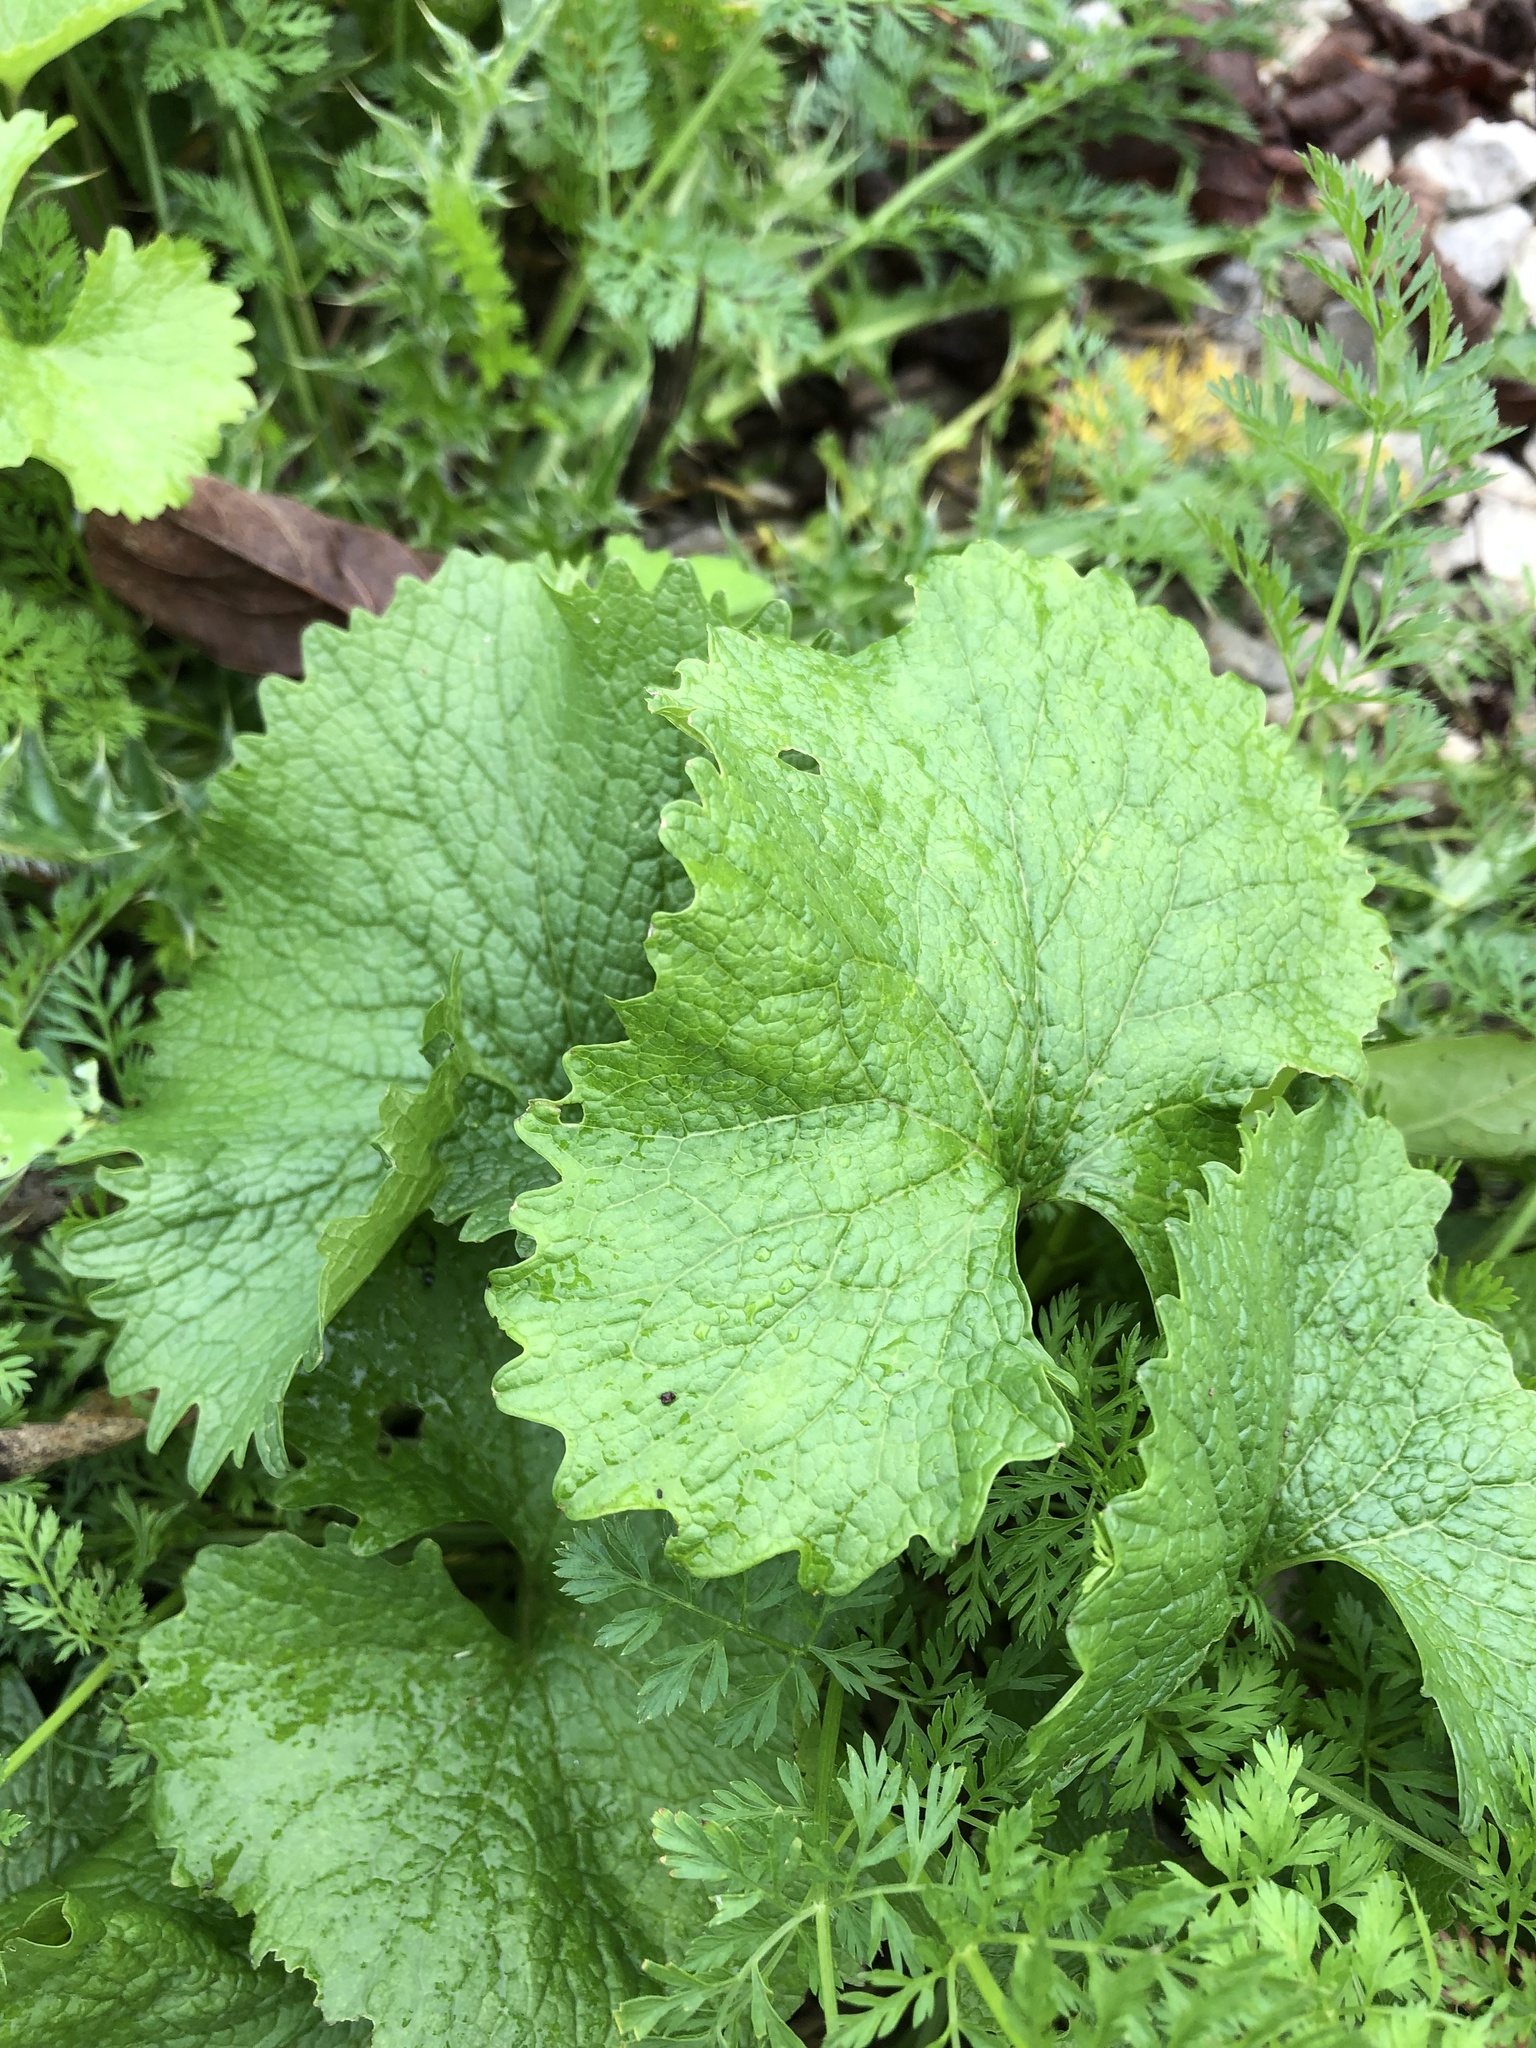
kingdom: Plantae
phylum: Tracheophyta
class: Magnoliopsida
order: Brassicales
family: Brassicaceae
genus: Alliaria
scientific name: Alliaria petiolata
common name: Garlic mustard
